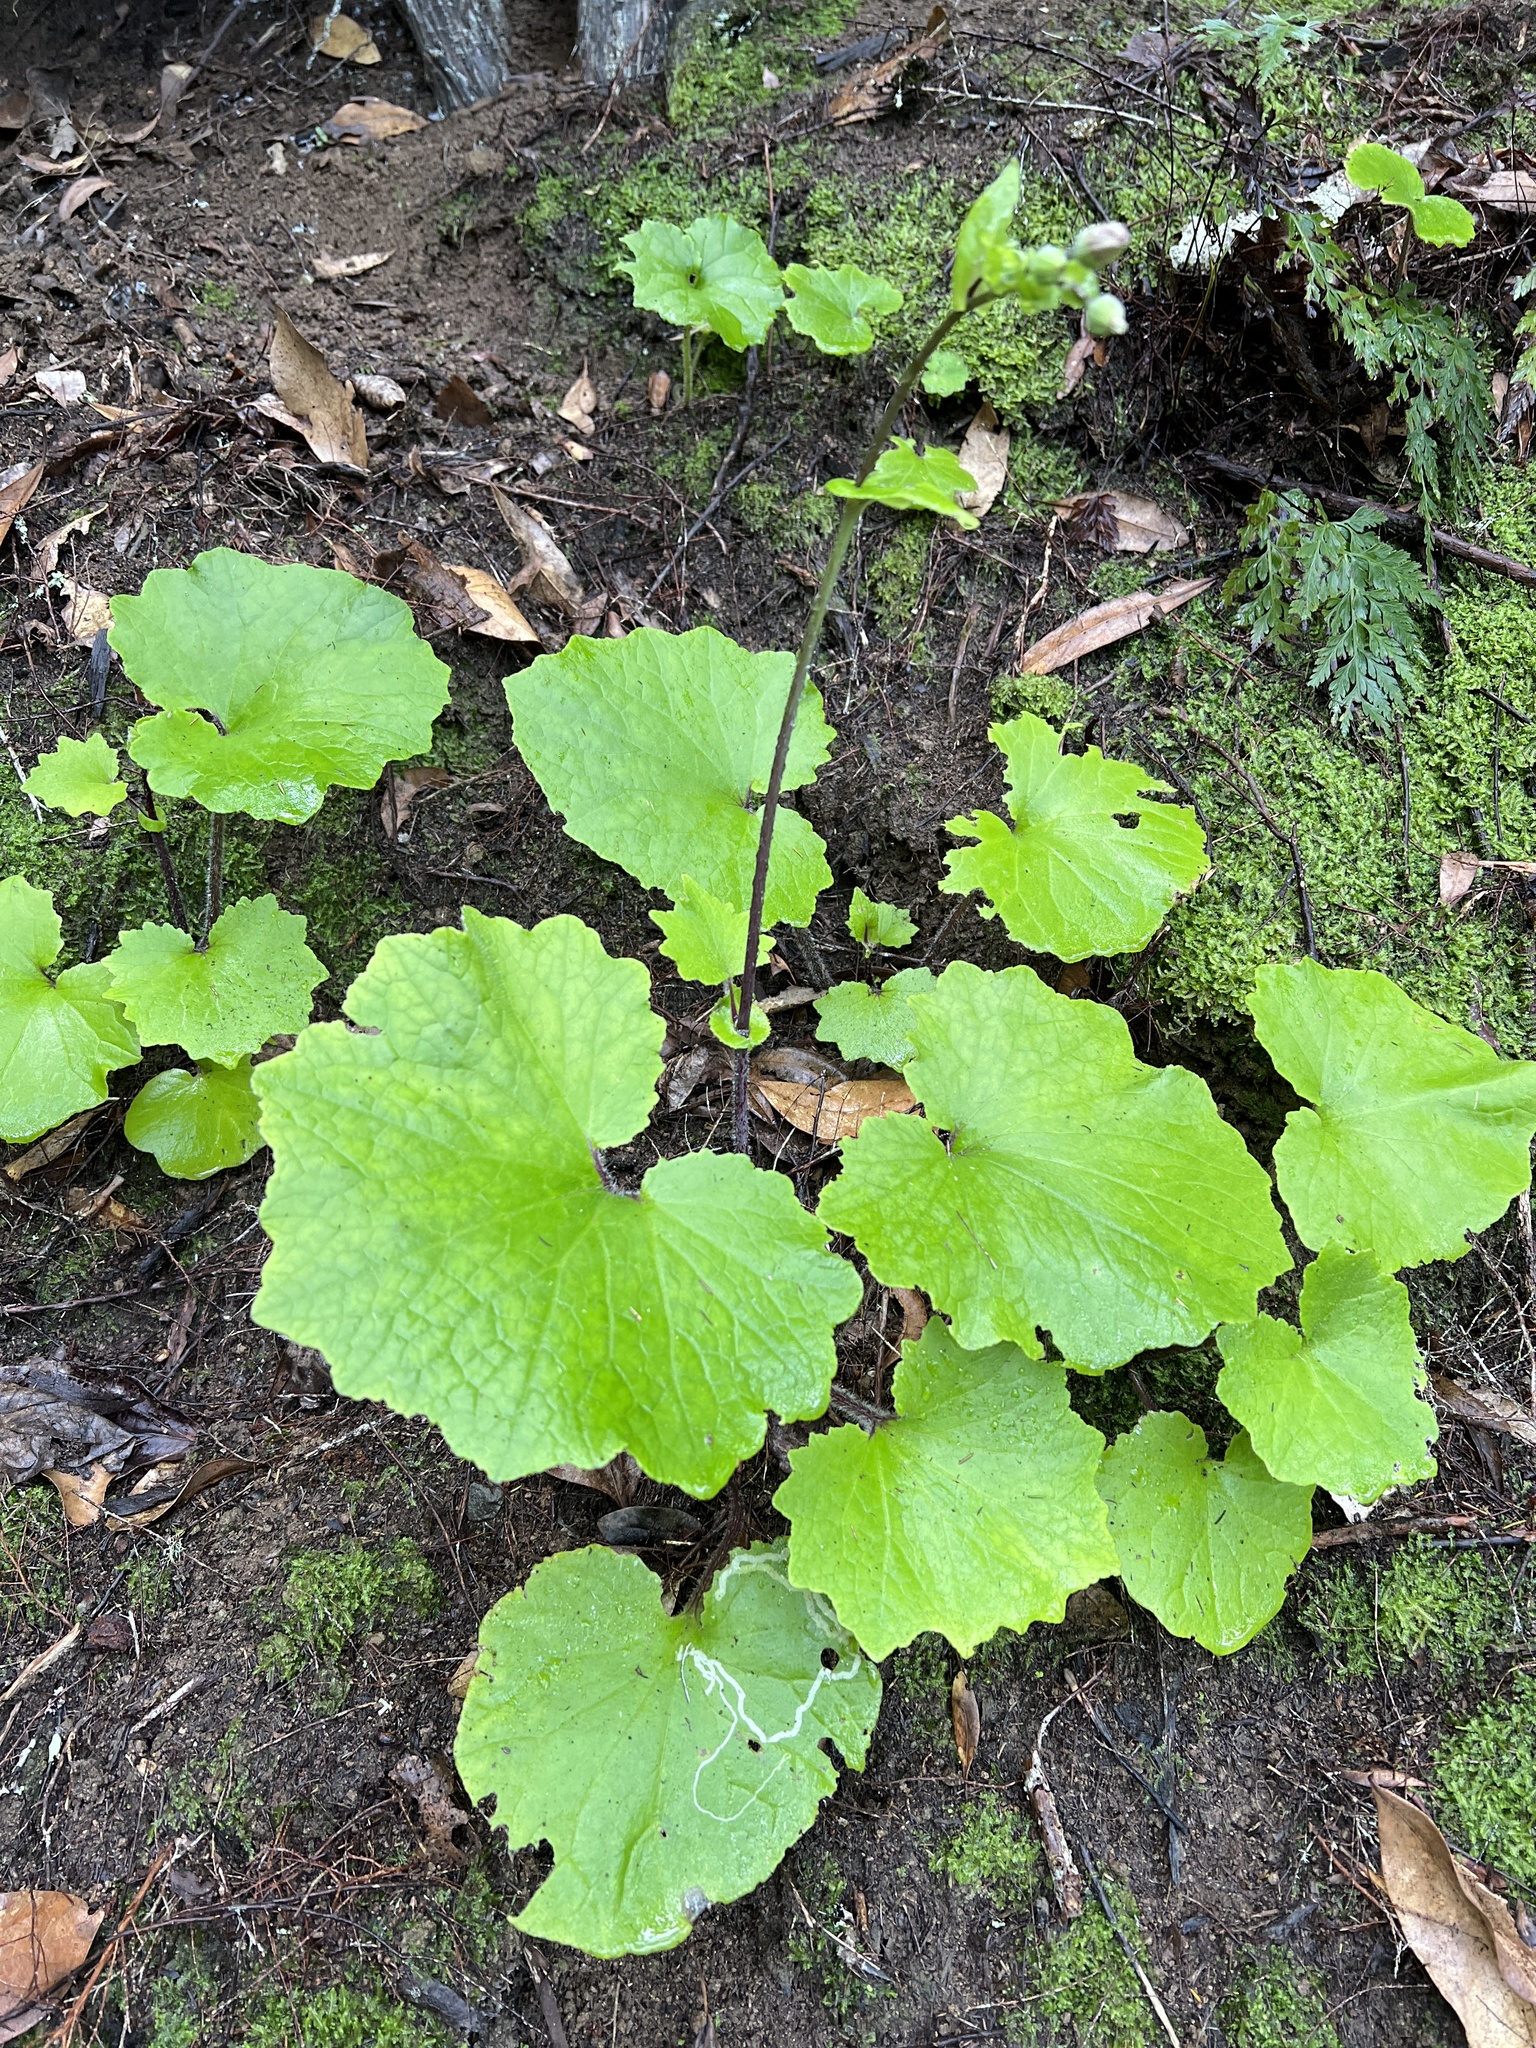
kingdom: Plantae
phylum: Tracheophyta
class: Magnoliopsida
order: Asterales
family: Asteraceae
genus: Pericallis
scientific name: Pericallis tussilaginis
